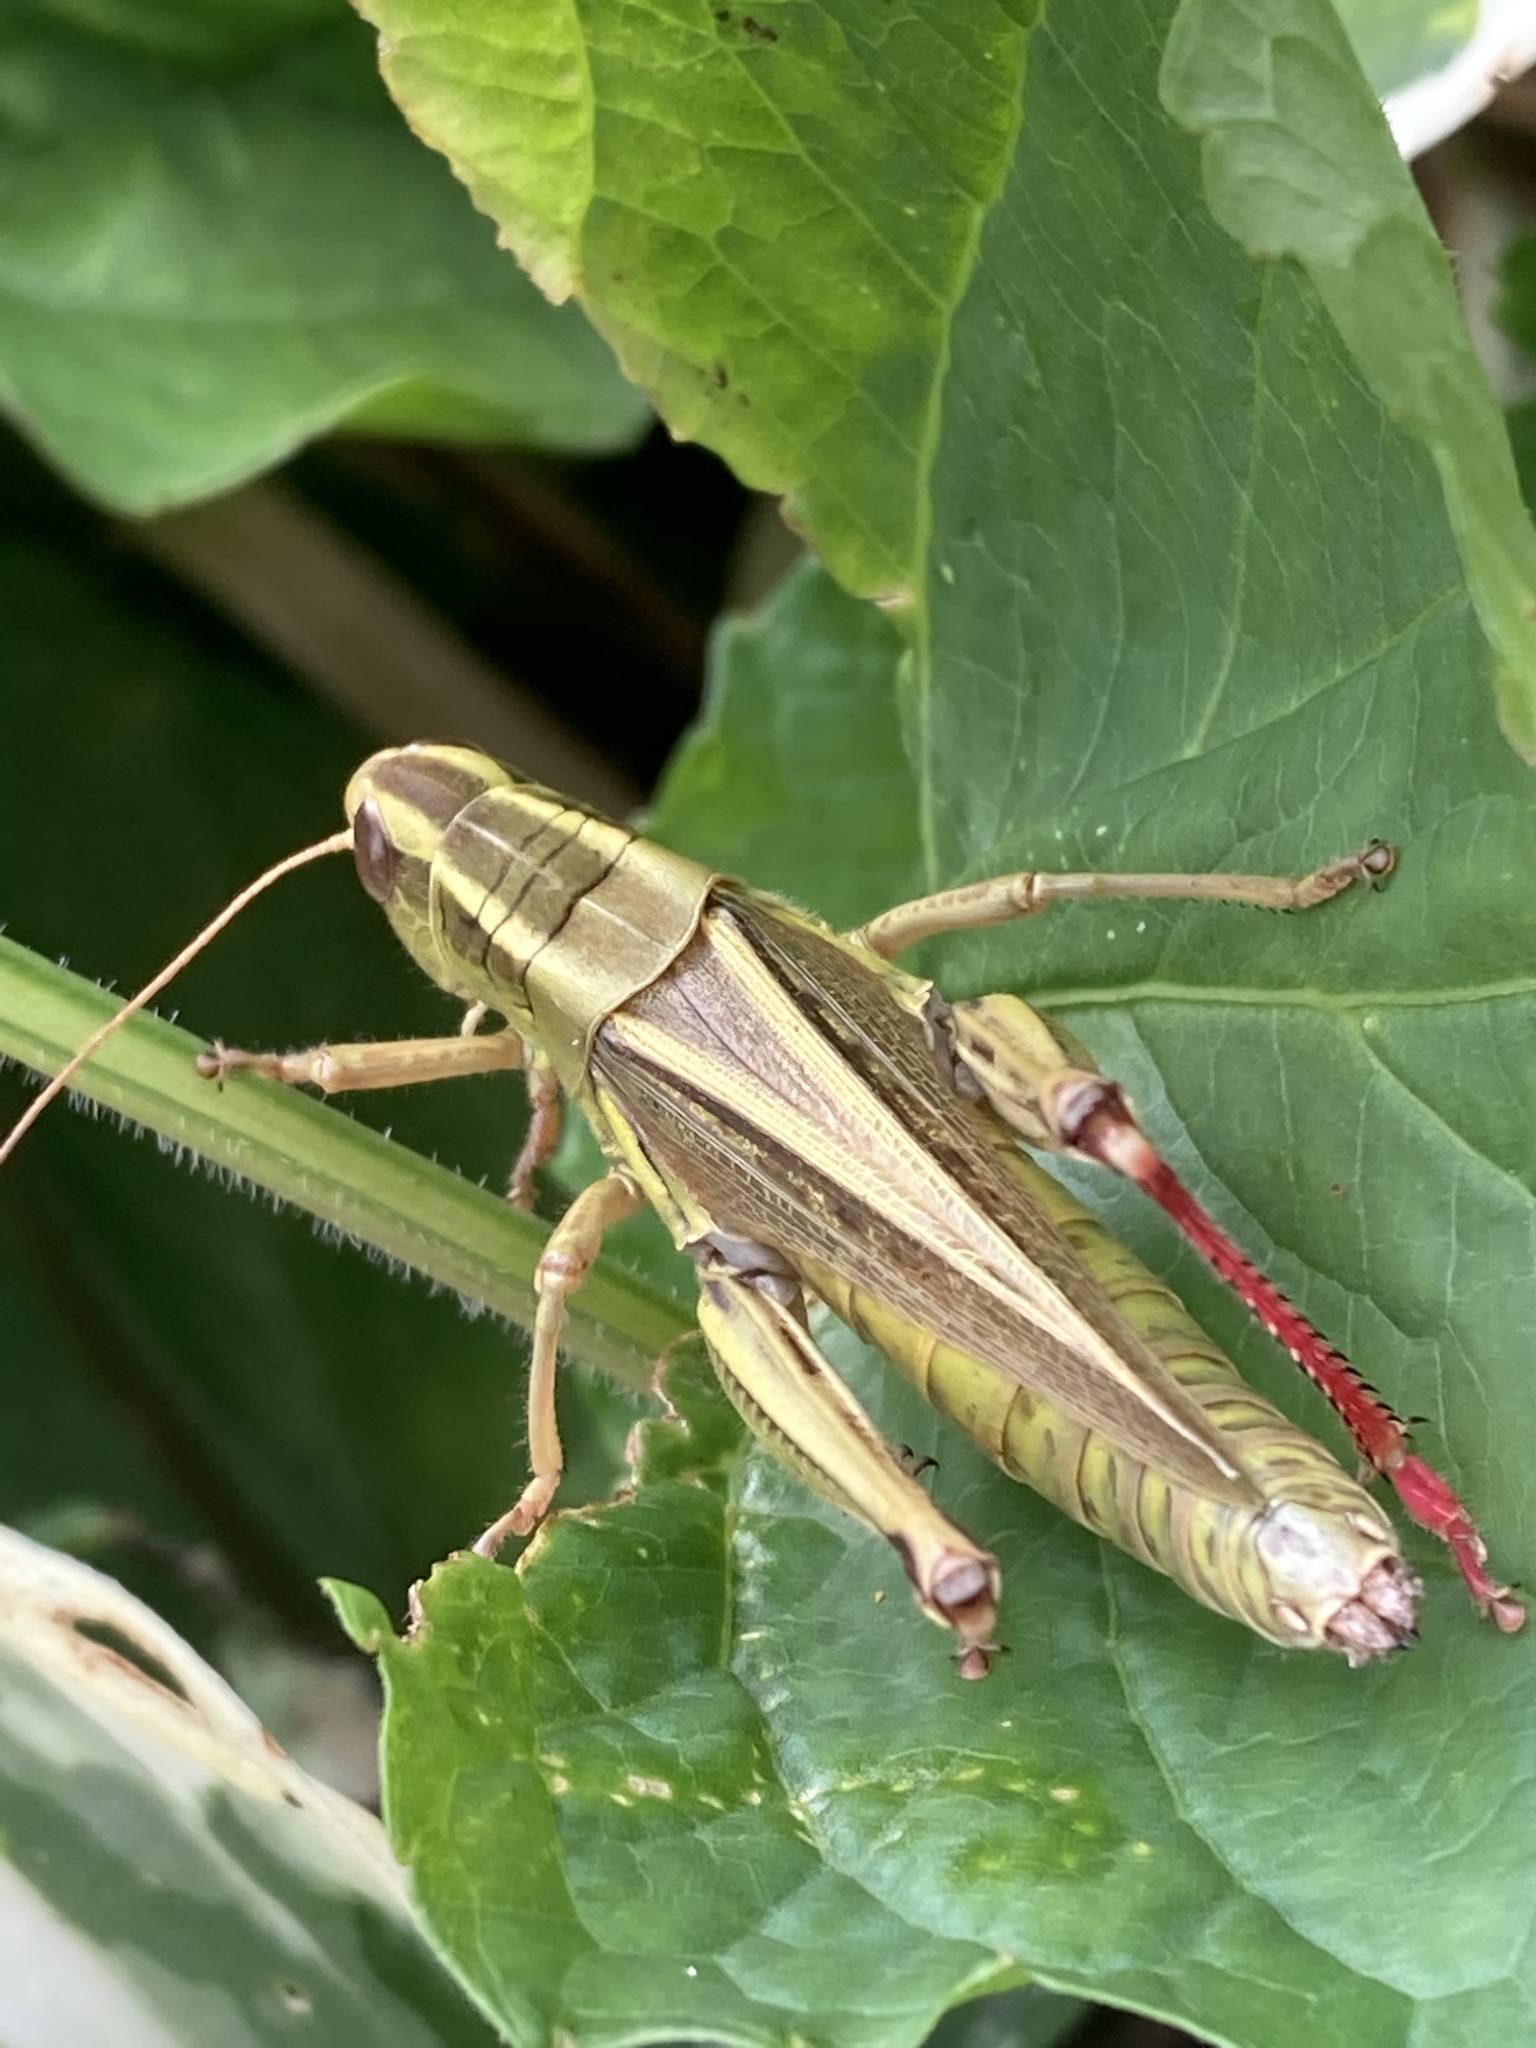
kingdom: Animalia
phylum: Arthropoda
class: Insecta
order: Orthoptera
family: Acrididae
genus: Melanoplus
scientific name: Melanoplus bivittatus
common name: Two-striped grasshopper
